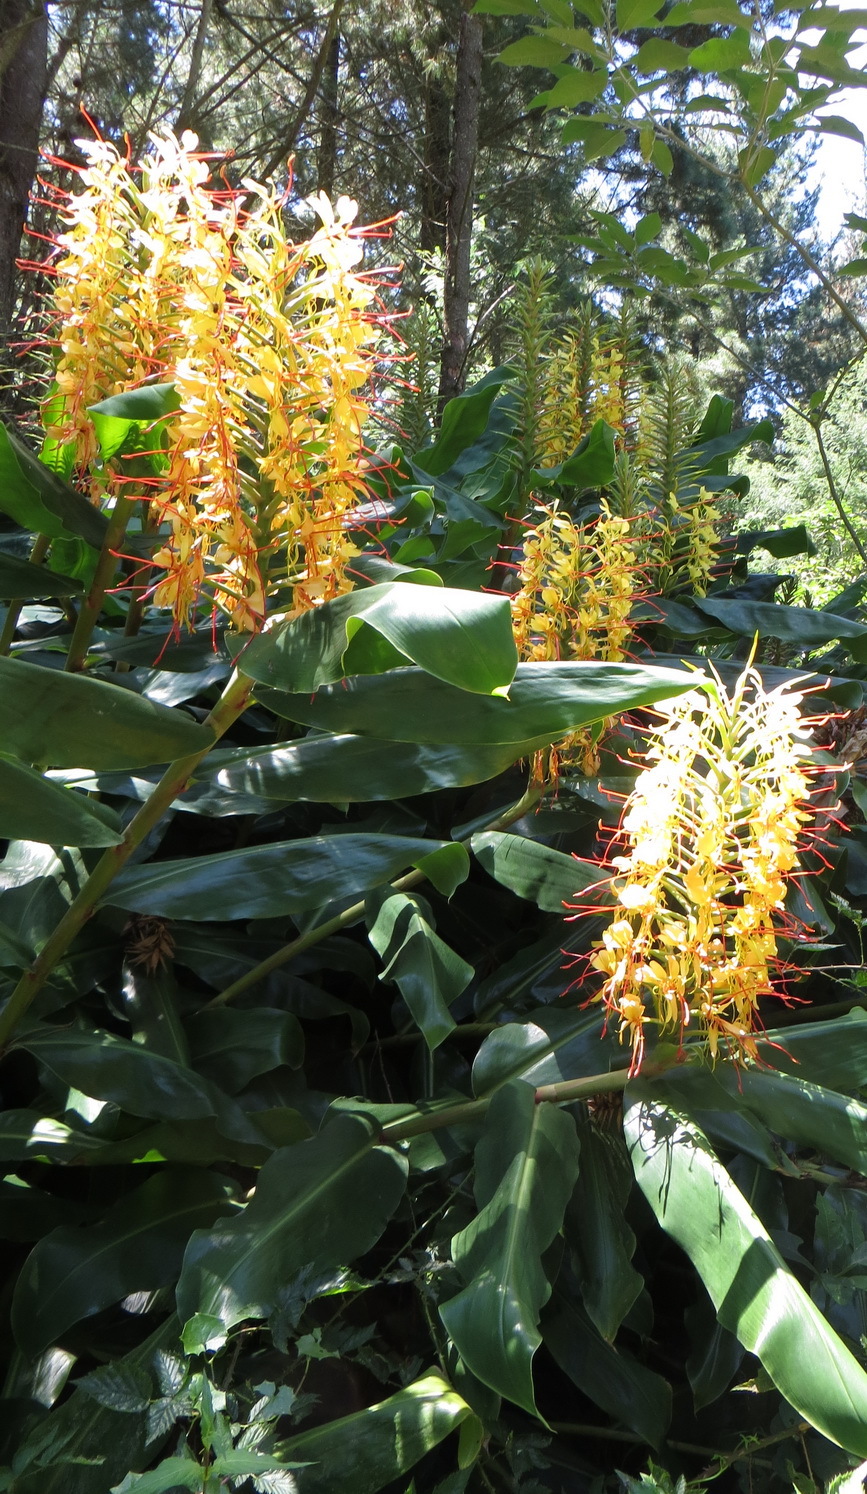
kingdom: Plantae
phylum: Tracheophyta
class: Liliopsida
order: Zingiberales
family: Zingiberaceae
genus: Hedychium
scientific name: Hedychium gardnerianum
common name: Himalayan ginger
